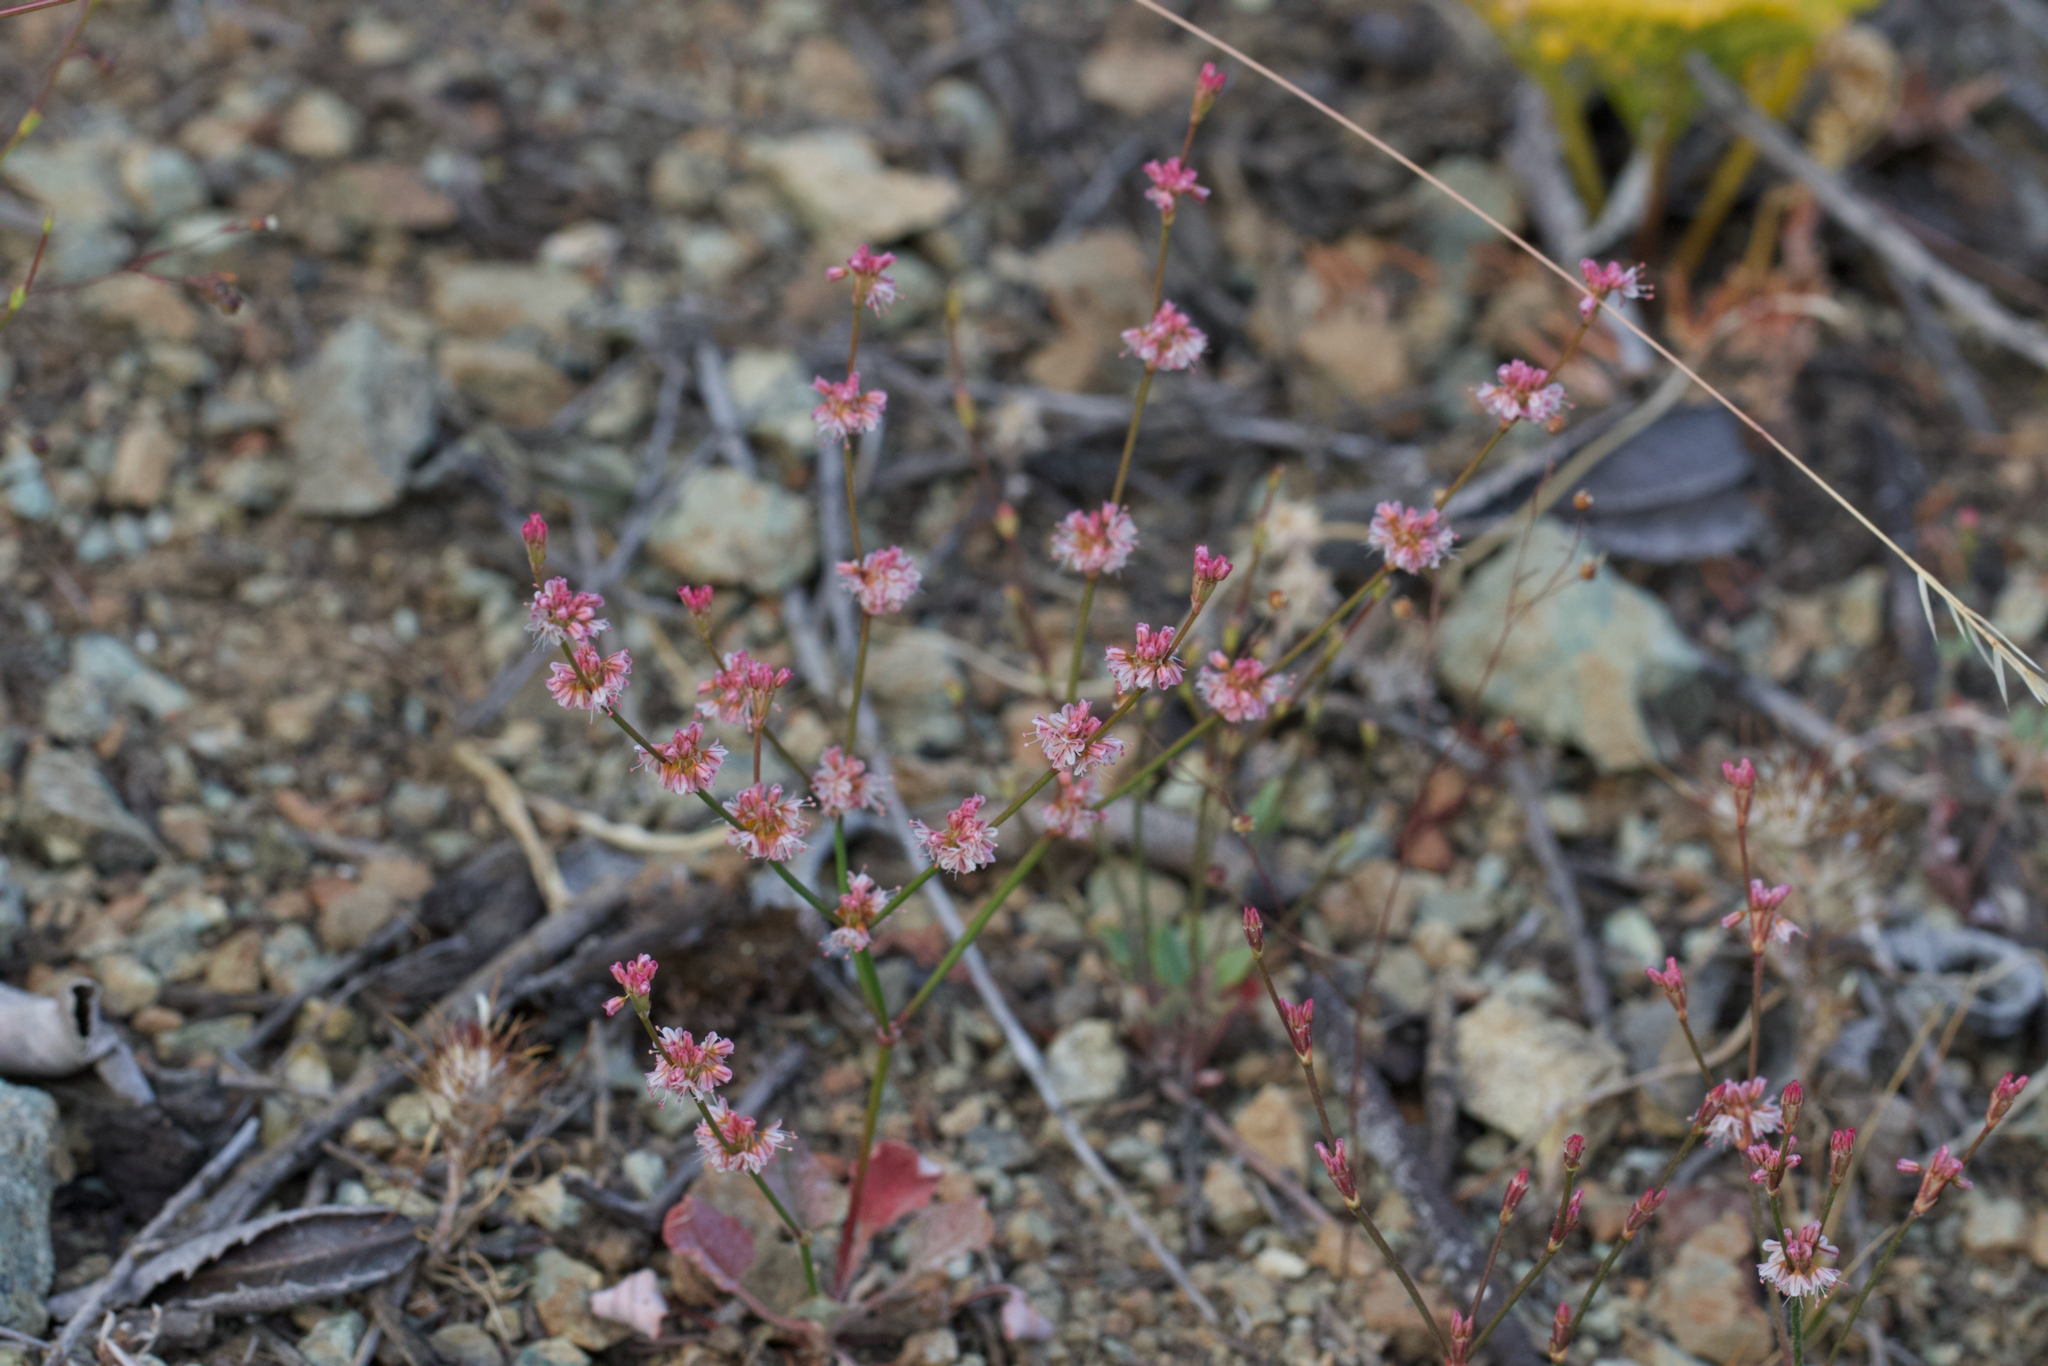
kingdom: Plantae
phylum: Tracheophyta
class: Magnoliopsida
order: Caryophyllales
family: Polygonaceae
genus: Eriogonum
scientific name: Eriogonum luteolum
